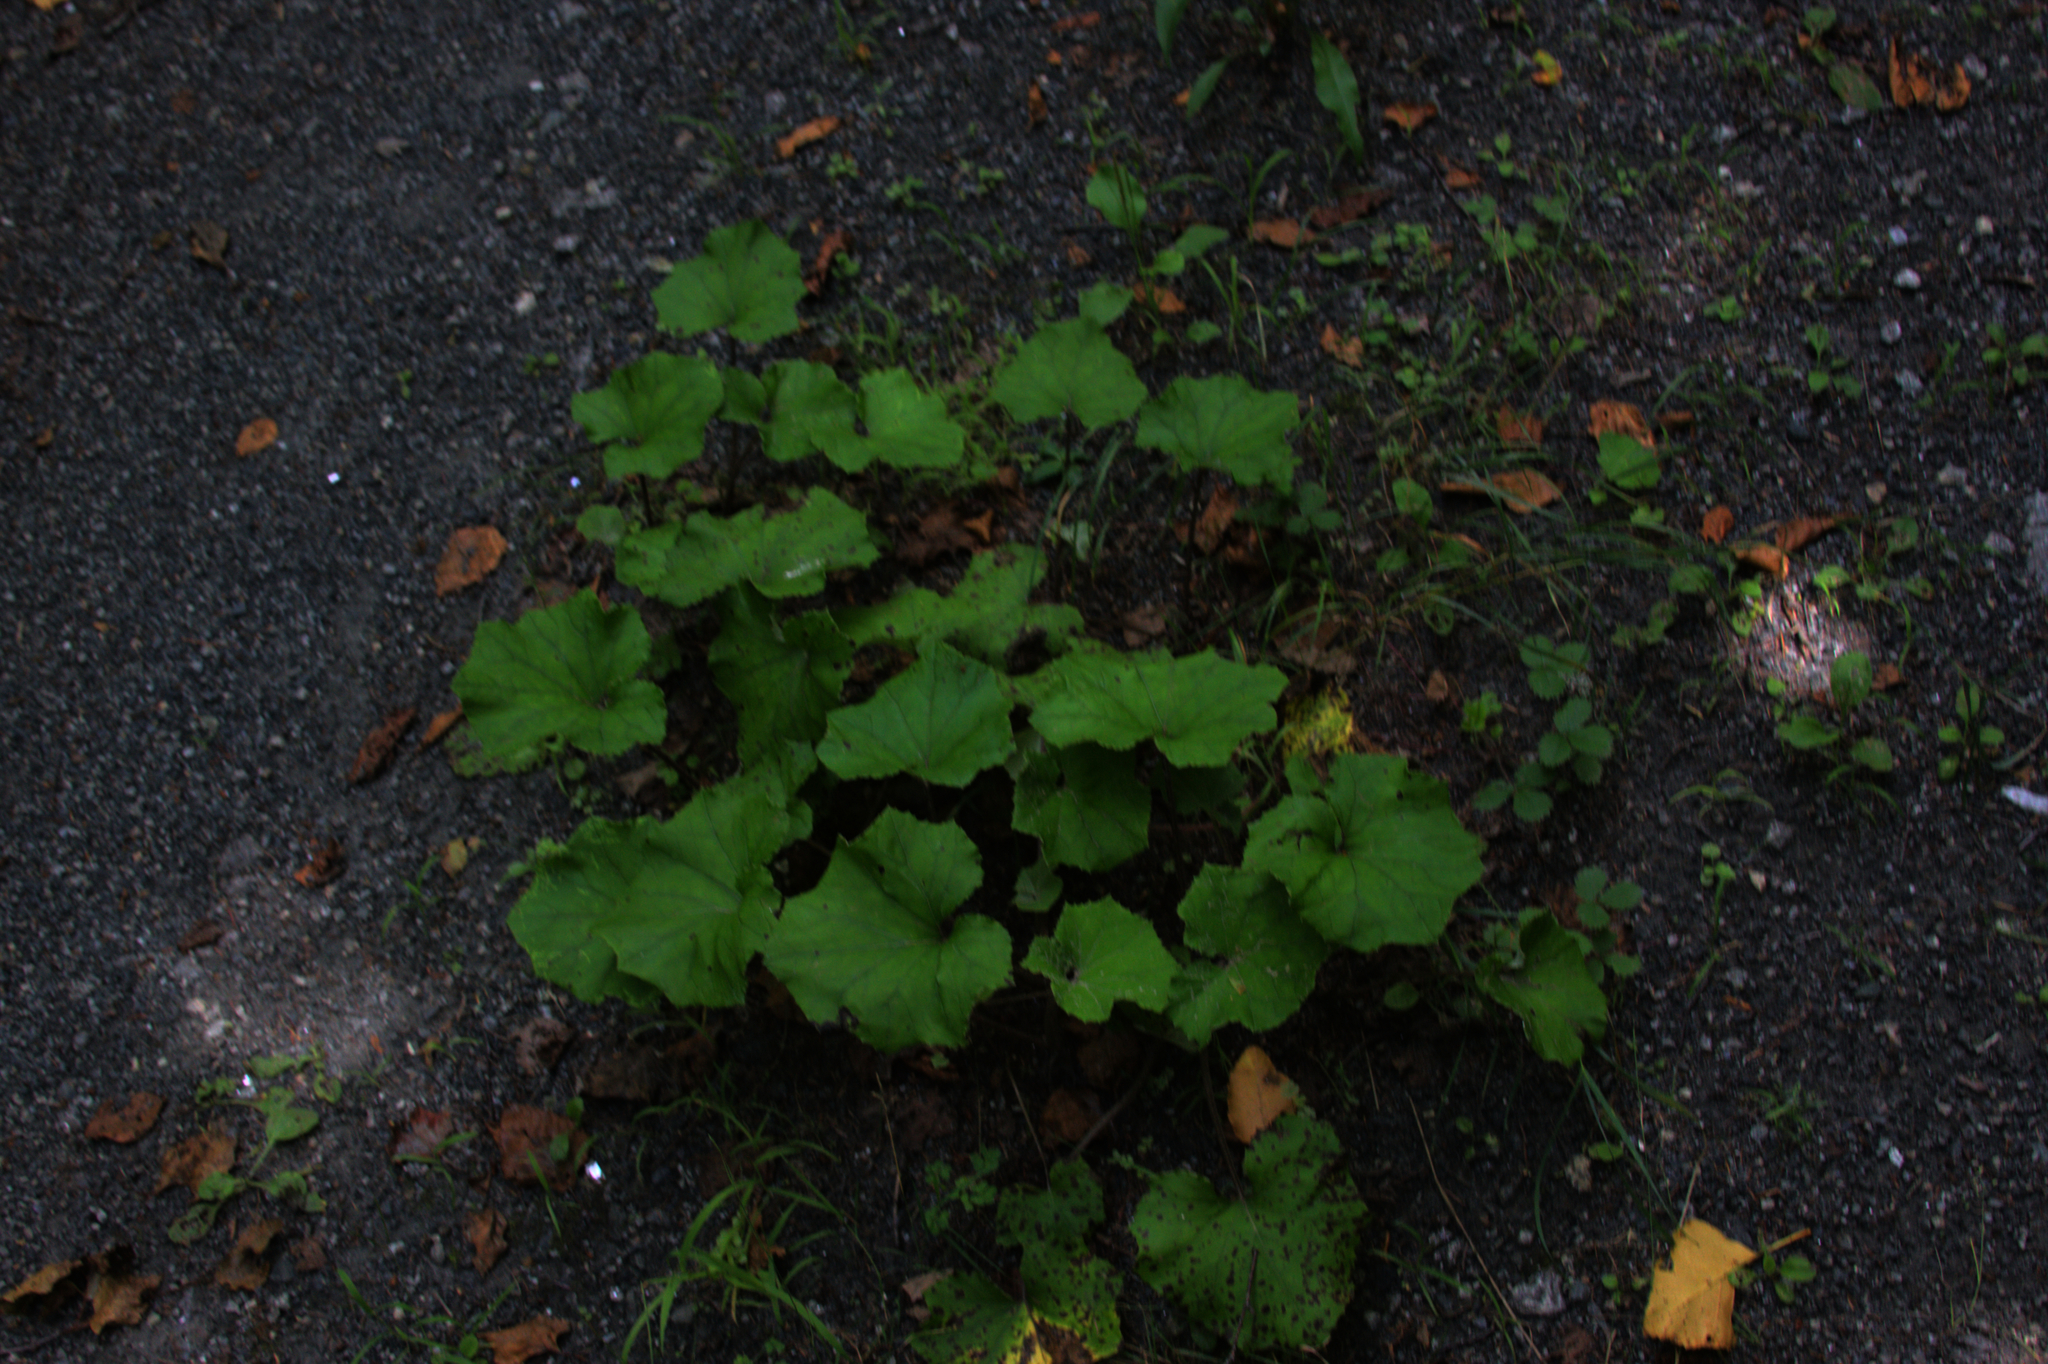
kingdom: Plantae
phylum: Tracheophyta
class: Magnoliopsida
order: Asterales
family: Asteraceae
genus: Tussilago
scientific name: Tussilago farfara
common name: Coltsfoot
